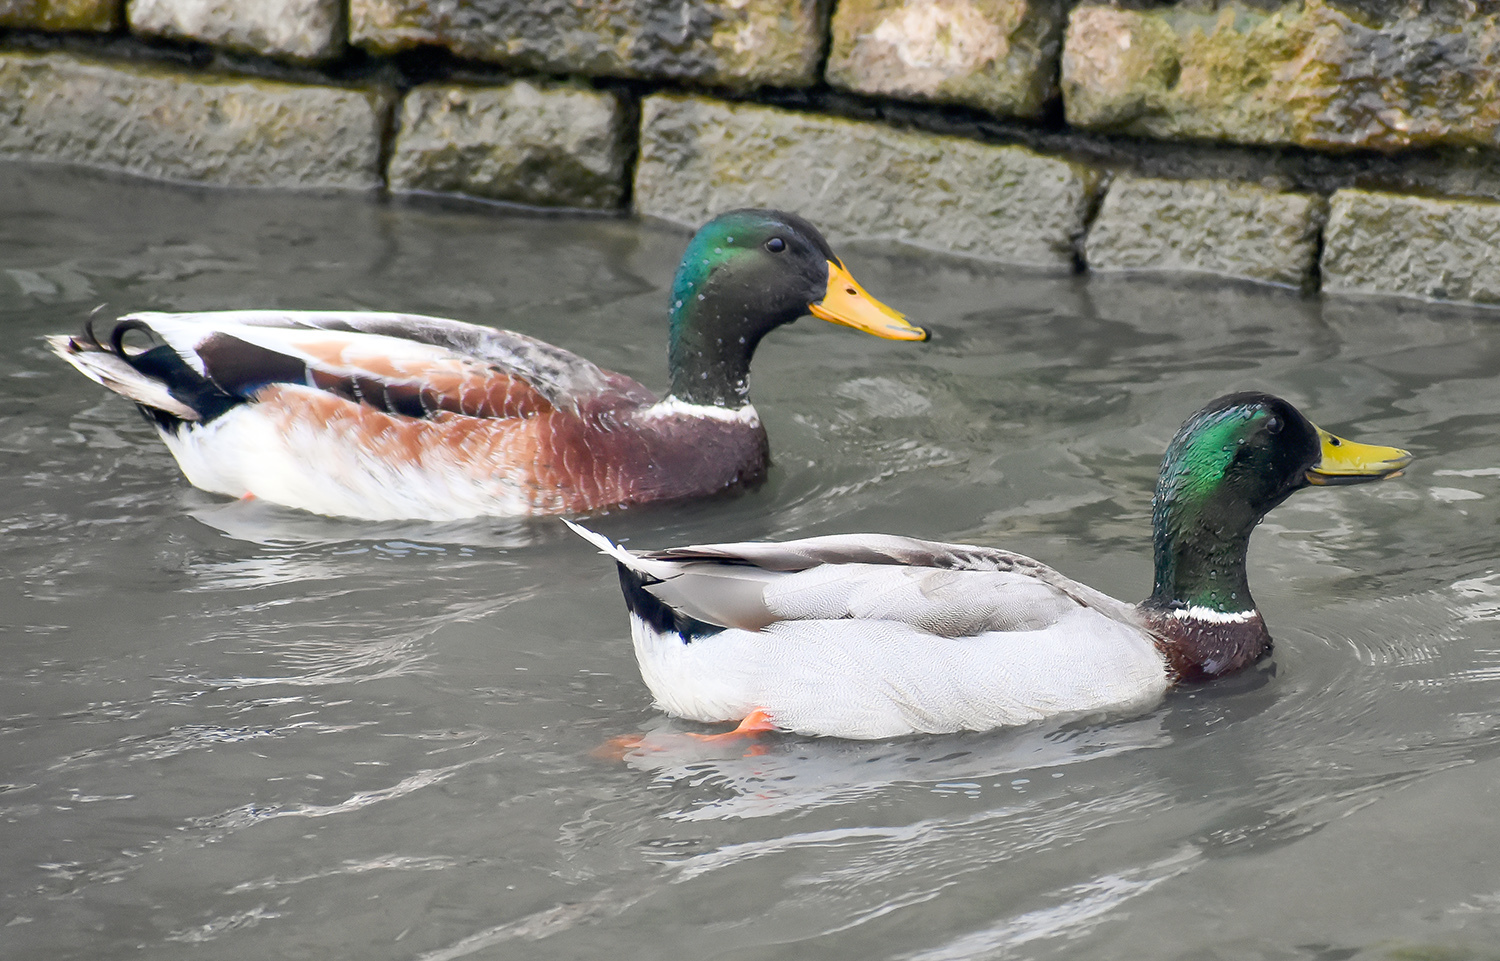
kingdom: Animalia
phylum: Chordata
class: Aves
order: Anseriformes
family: Anatidae
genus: Anas
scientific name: Anas platyrhynchos
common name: Mallard
